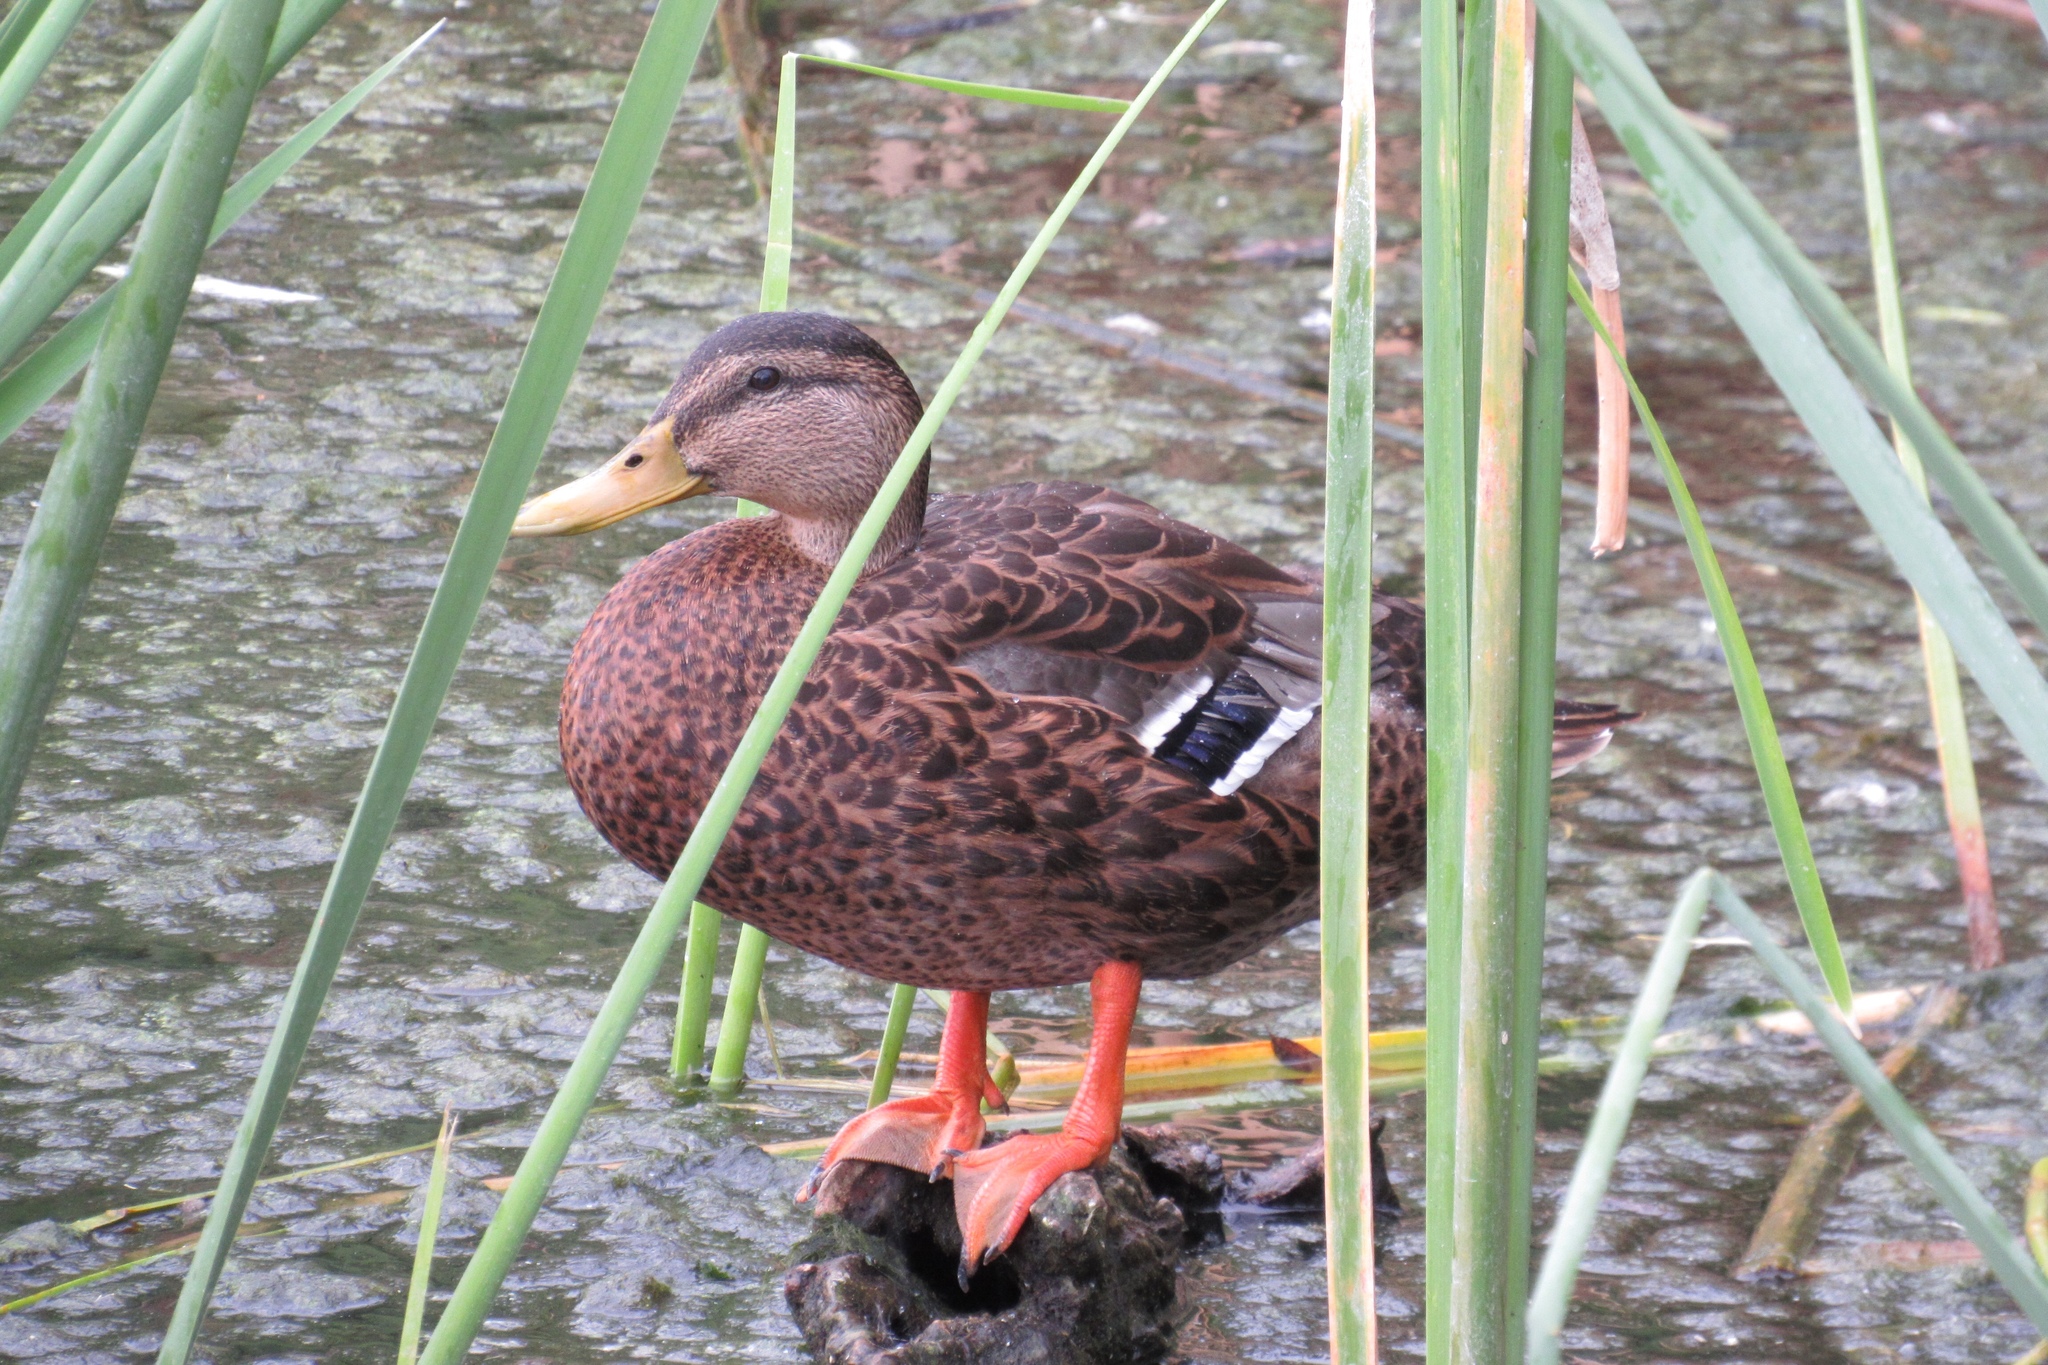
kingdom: Animalia
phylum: Chordata
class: Aves
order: Anseriformes
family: Anatidae
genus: Anas
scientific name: Anas platyrhynchos
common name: Mallard
